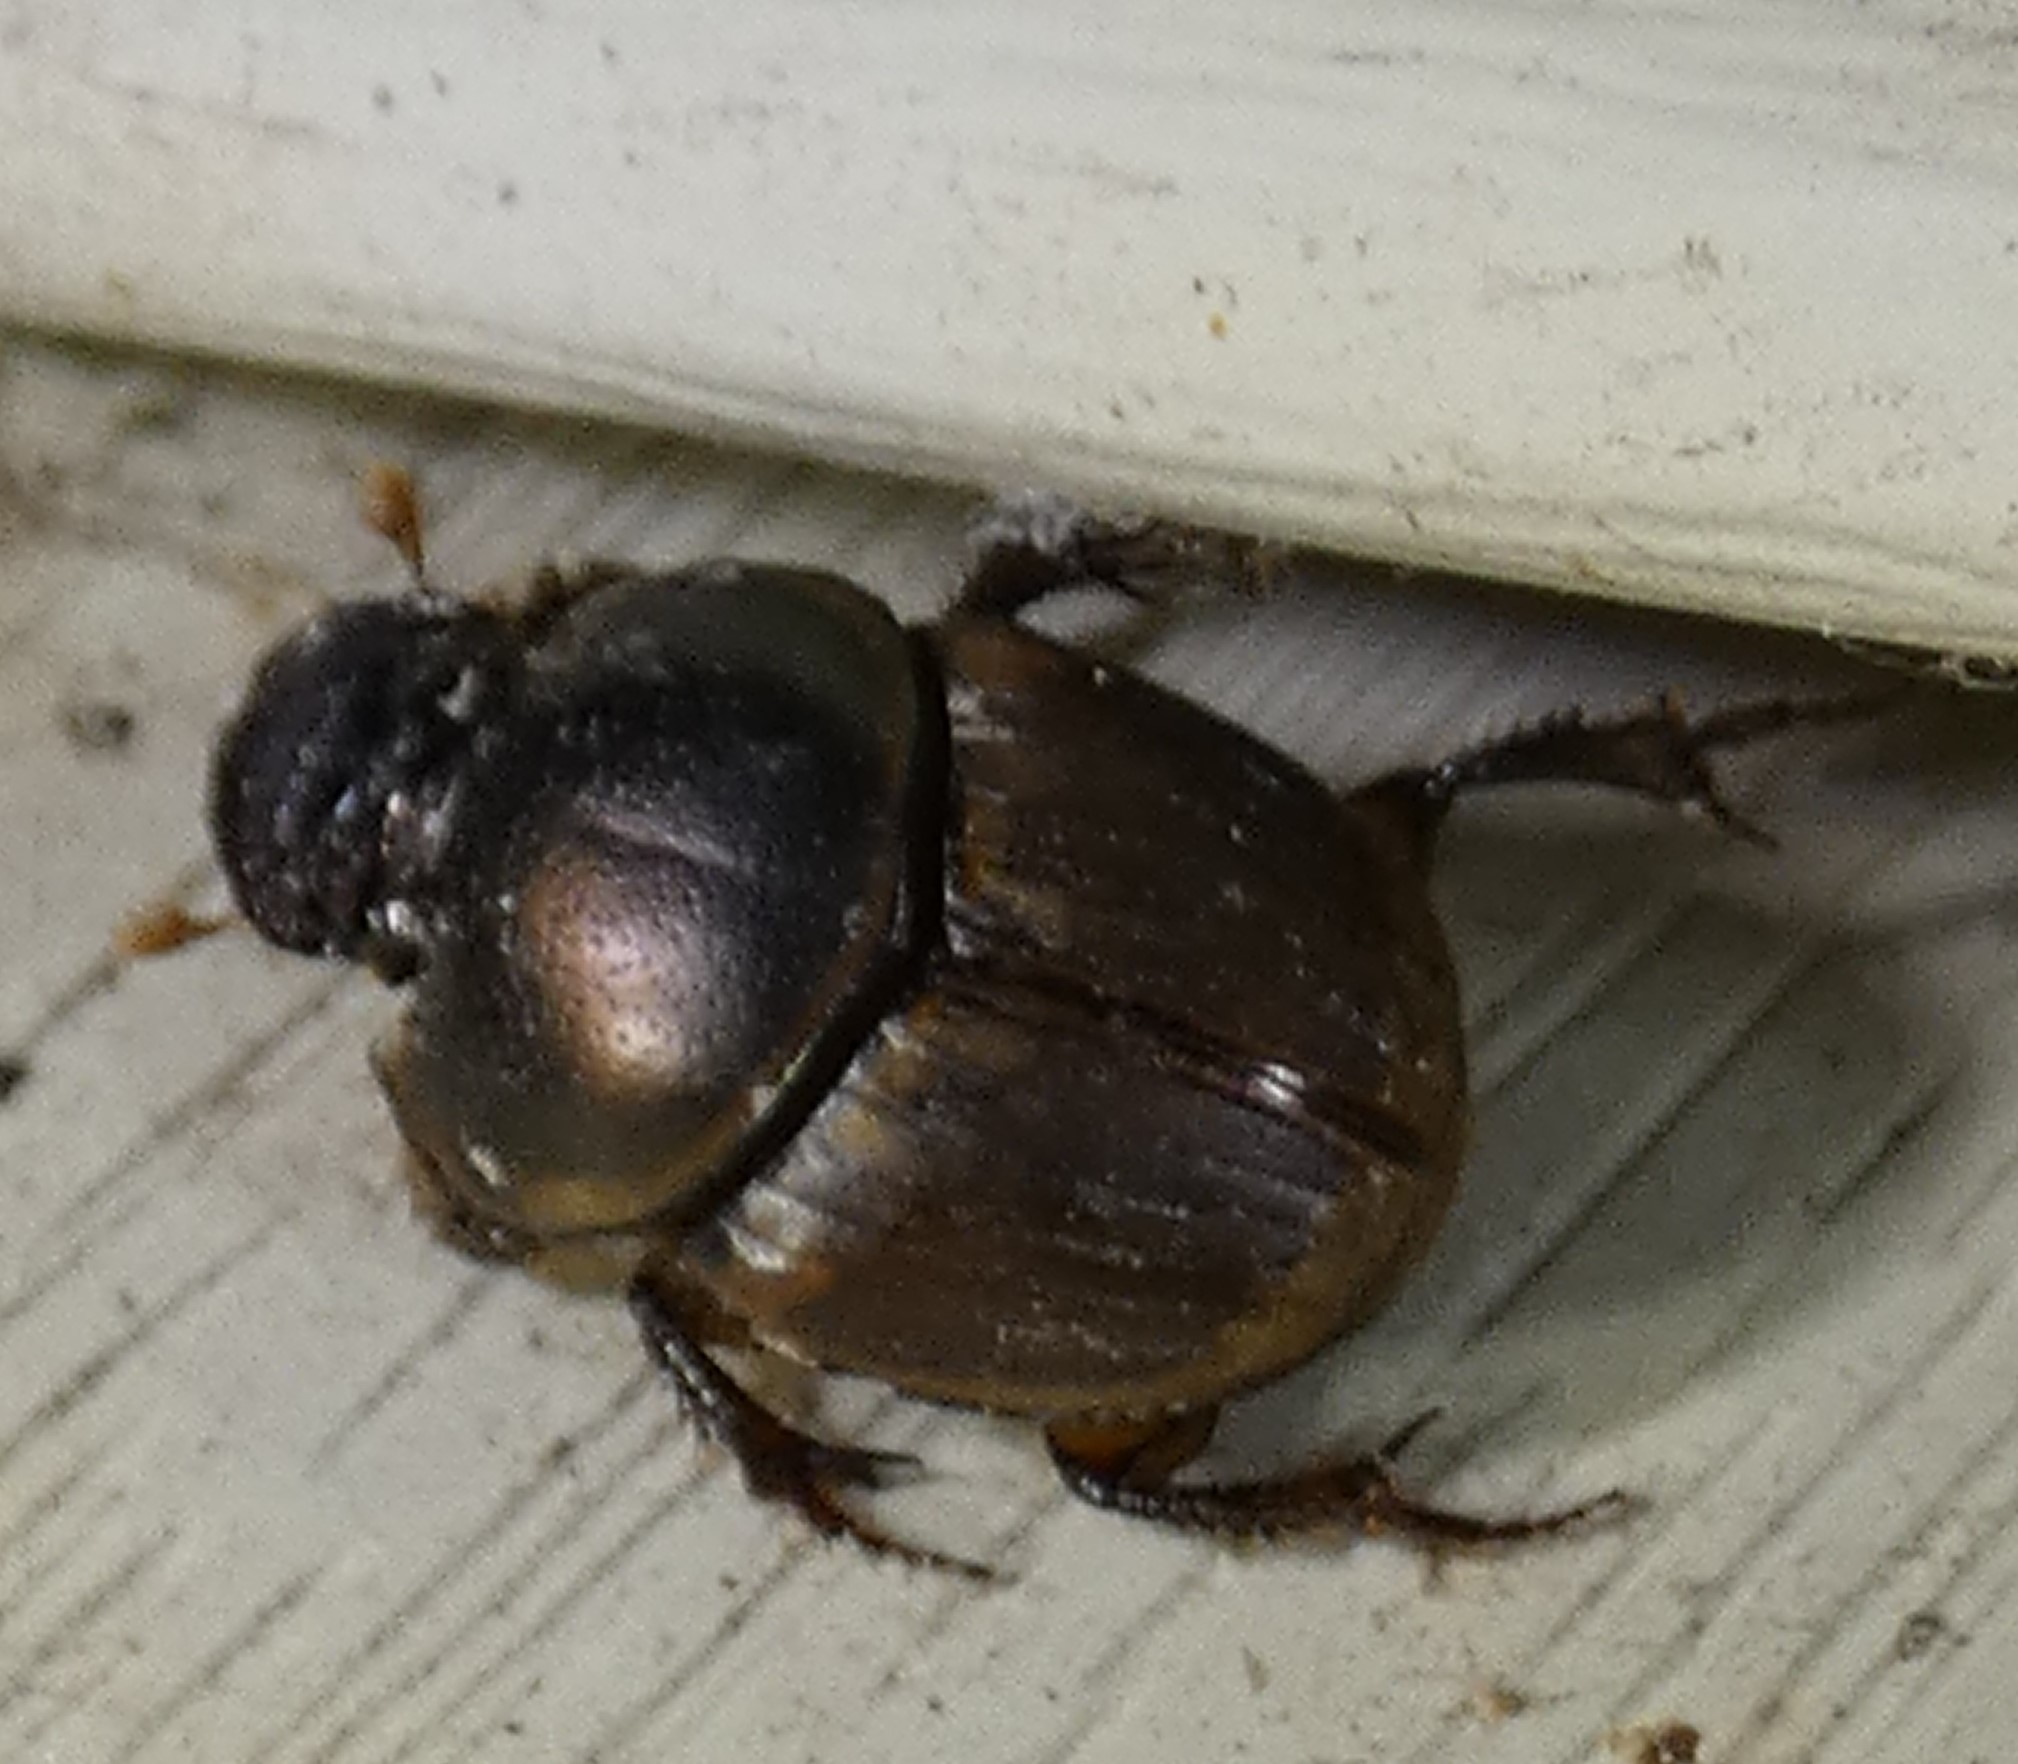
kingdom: Animalia
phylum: Arthropoda
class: Insecta
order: Coleoptera
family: Scarabaeidae
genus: Digitonthophagus
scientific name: Digitonthophagus gazella
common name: Brown dung beetle
